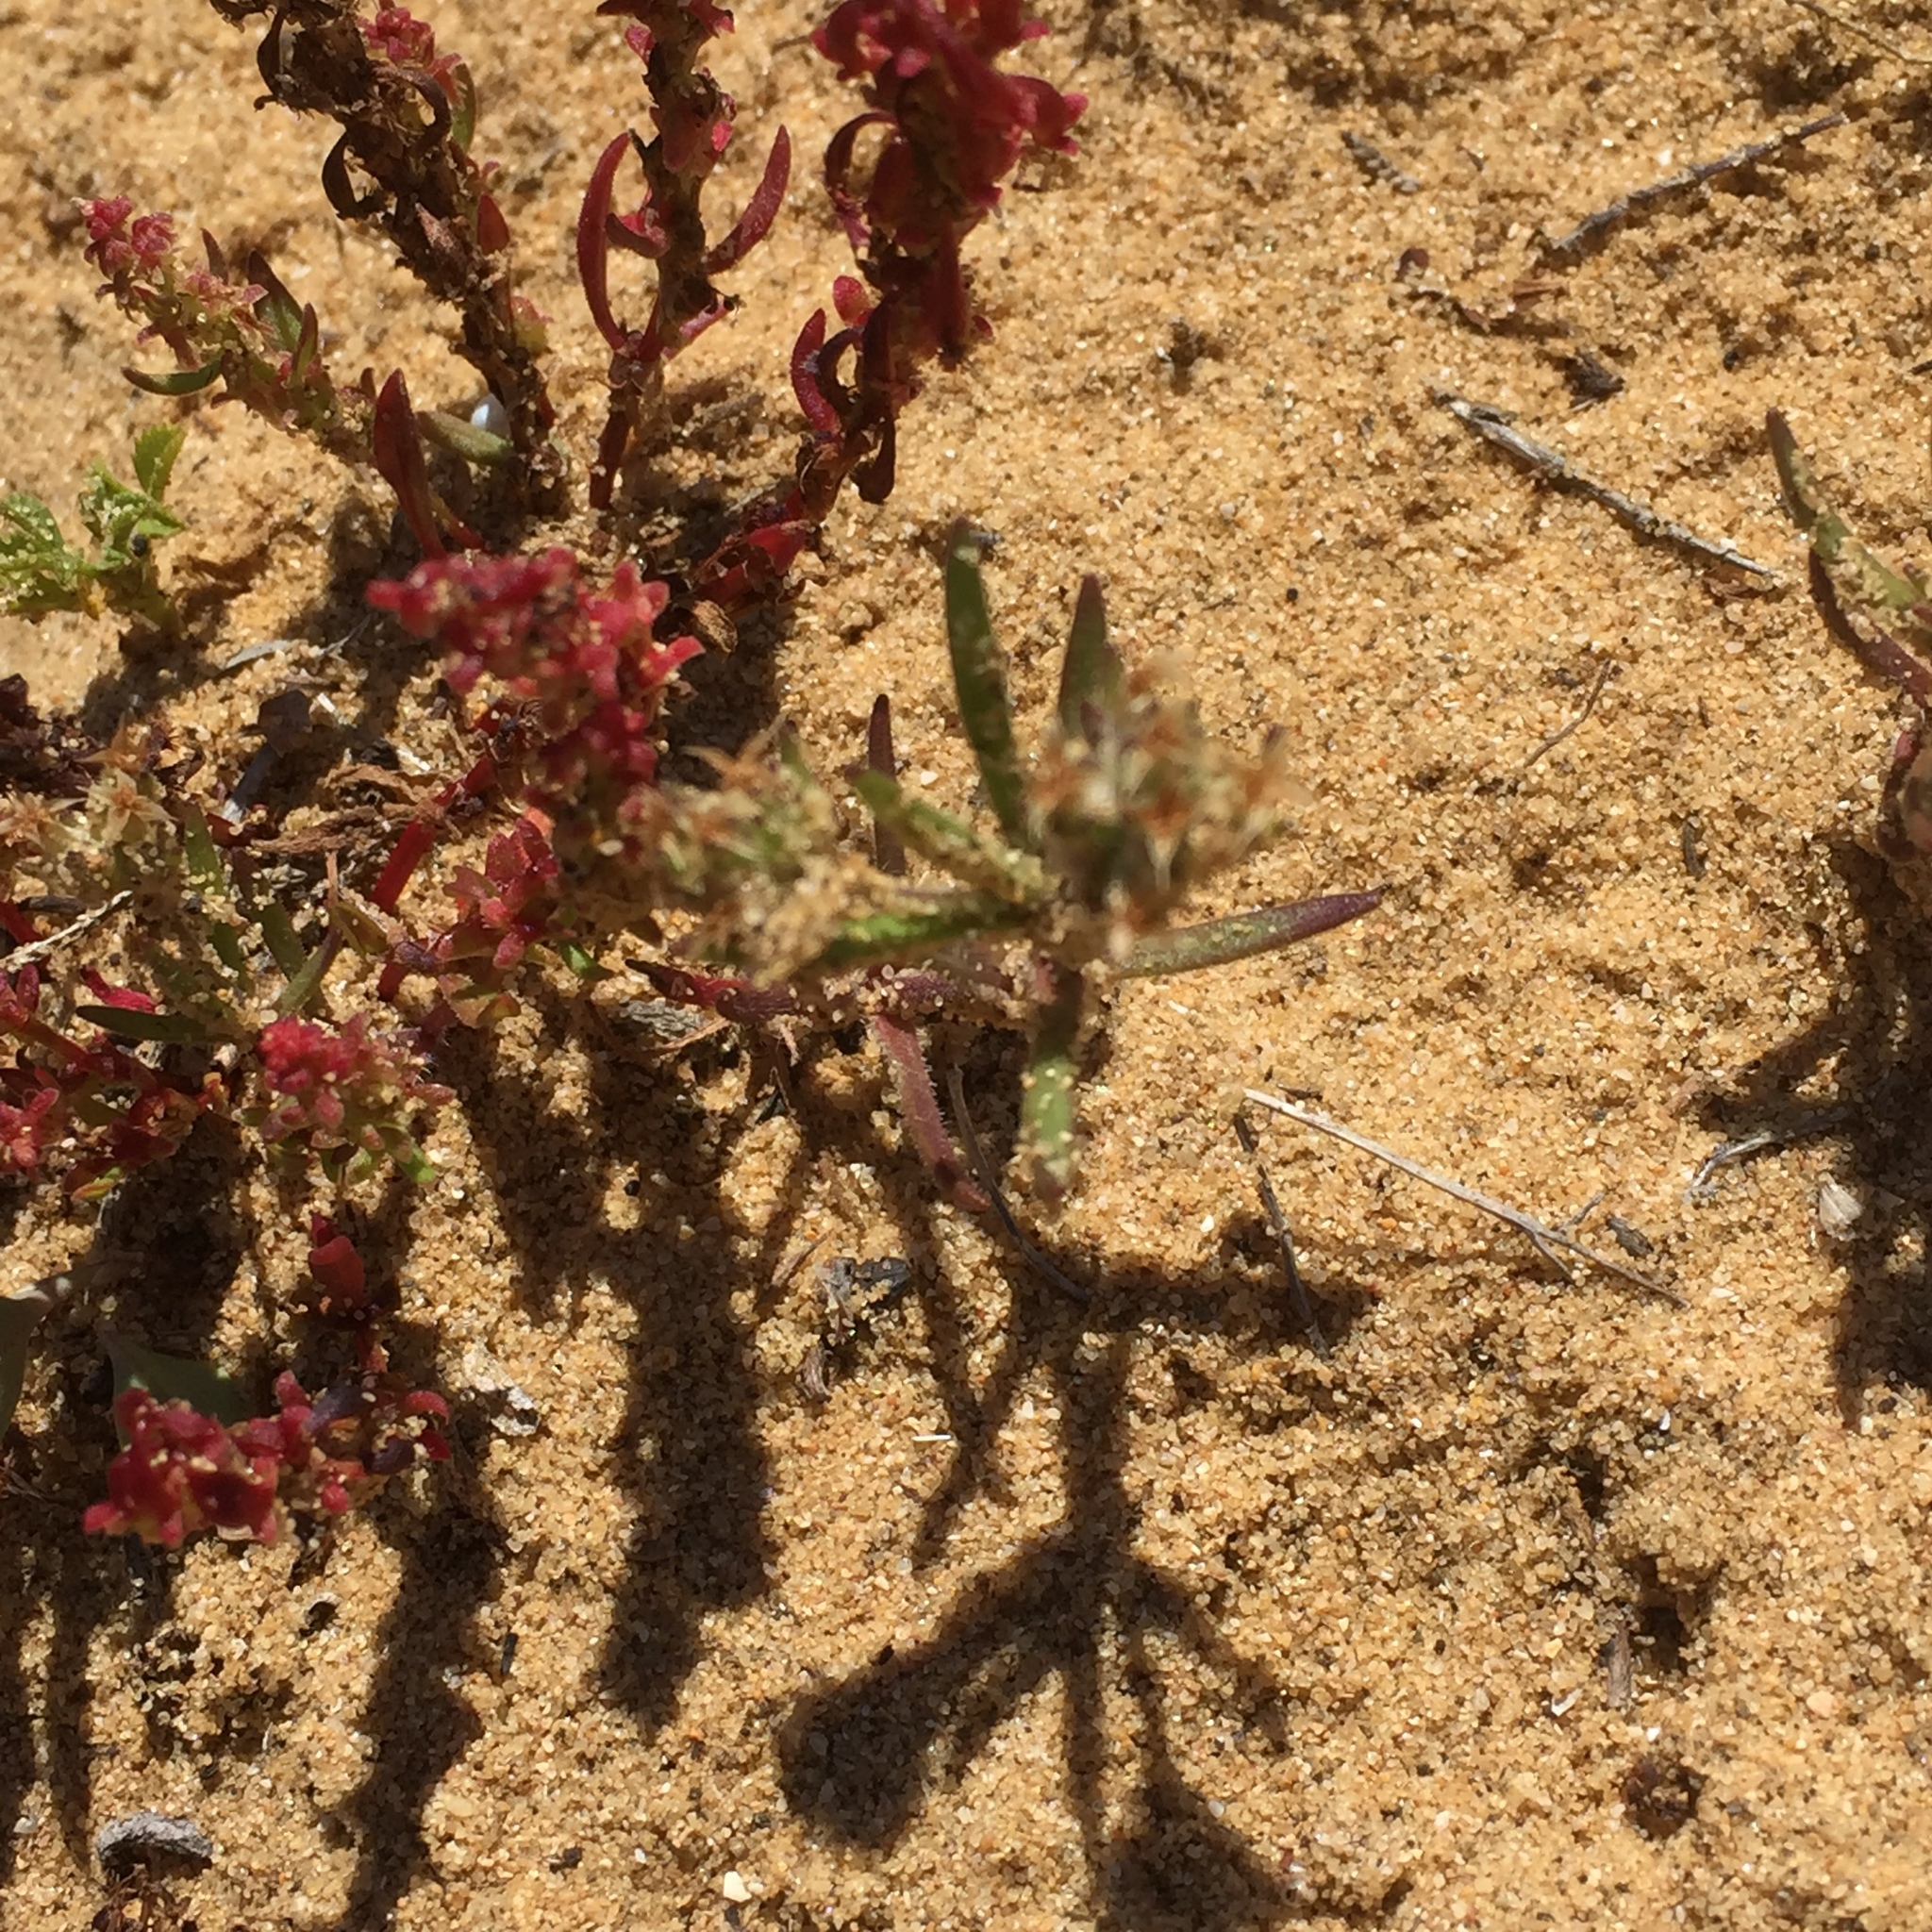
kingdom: Plantae
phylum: Tracheophyta
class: Magnoliopsida
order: Caryophyllales
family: Aizoaceae
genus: Mesembryanthemum
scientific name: Mesembryanthemum nodiflorum
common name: Slenderleaf iceplant
